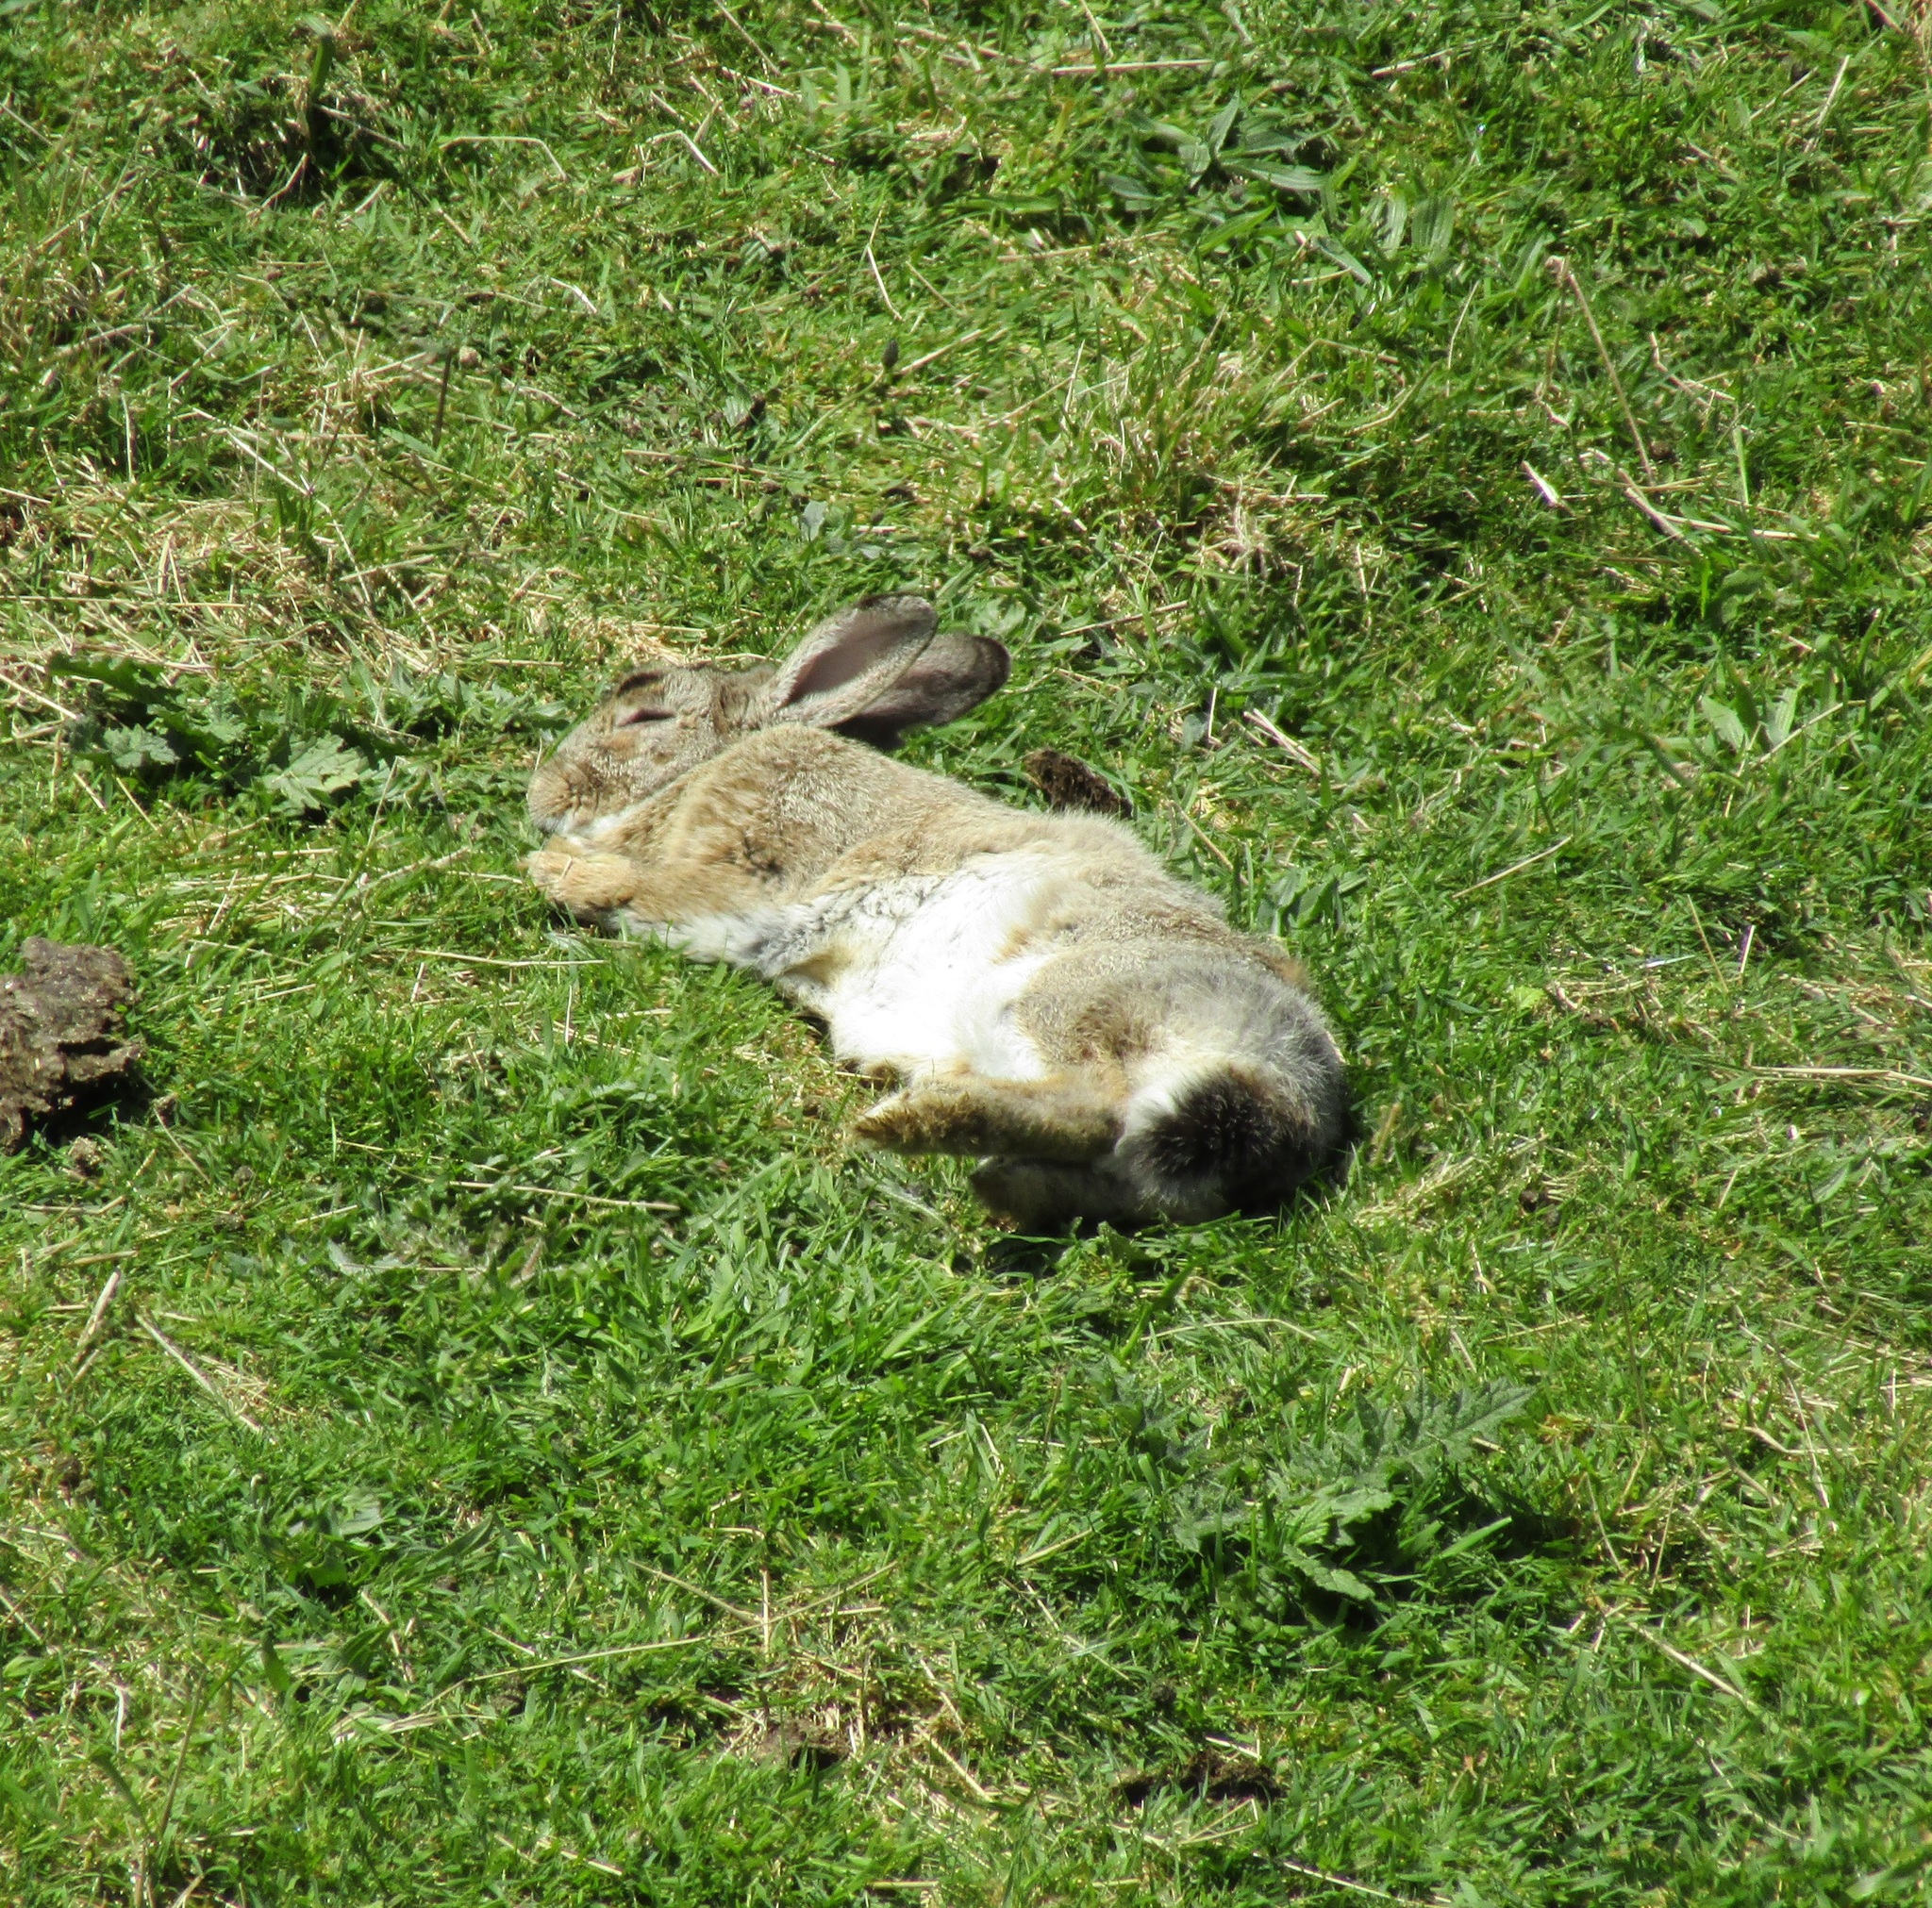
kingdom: Animalia
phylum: Chordata
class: Mammalia
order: Lagomorpha
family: Leporidae
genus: Oryctolagus
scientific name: Oryctolagus cuniculus
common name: European rabbit
